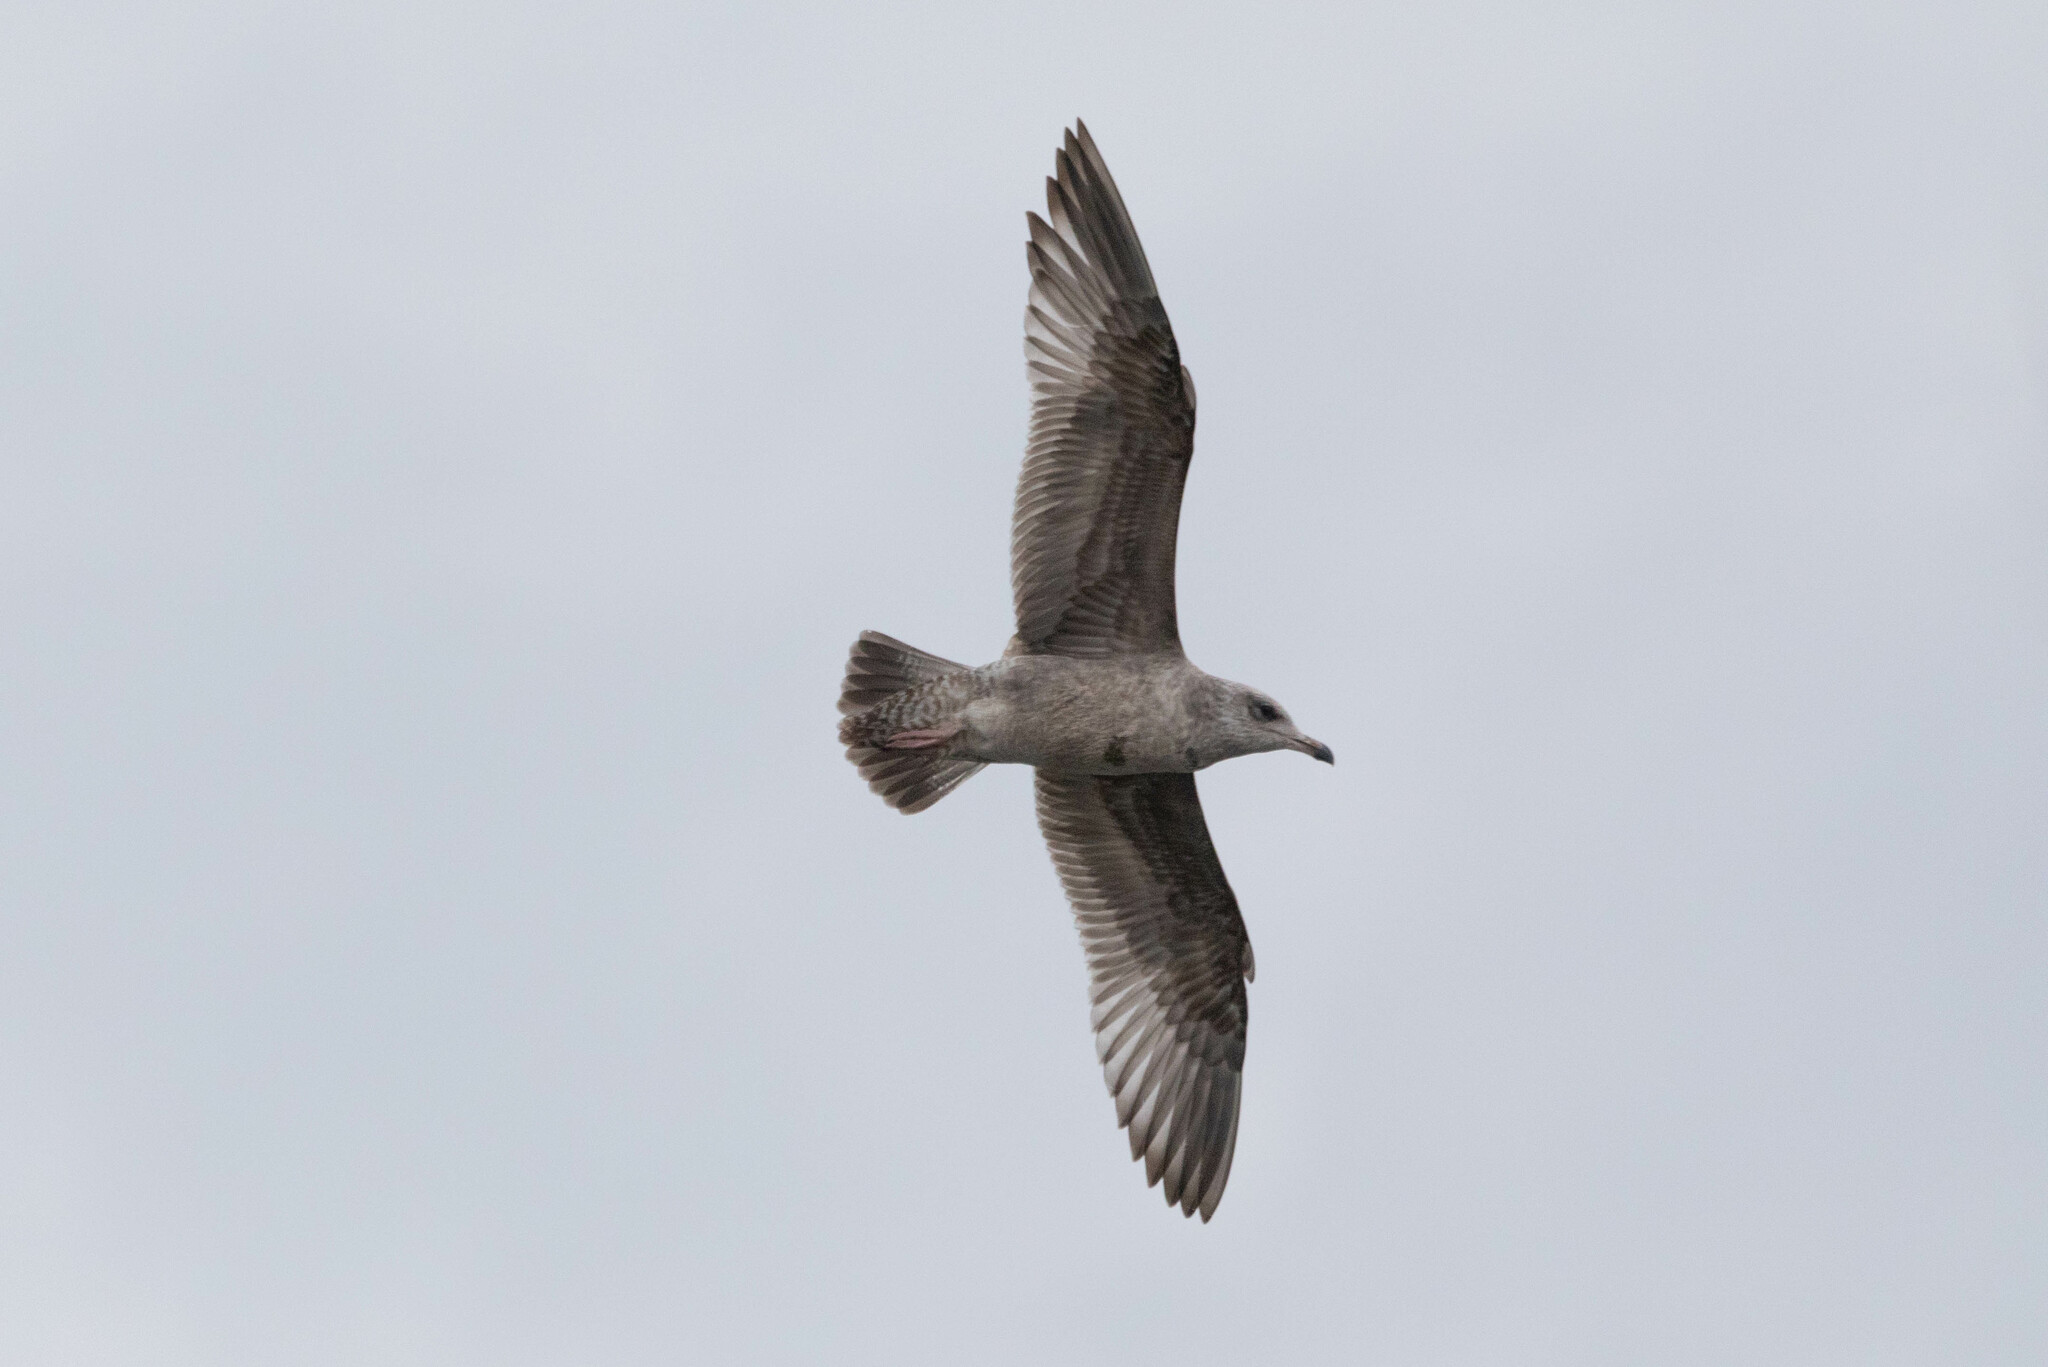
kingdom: Animalia
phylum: Chordata
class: Aves
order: Charadriiformes
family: Laridae
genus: Larus
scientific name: Larus argentatus
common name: Herring gull
